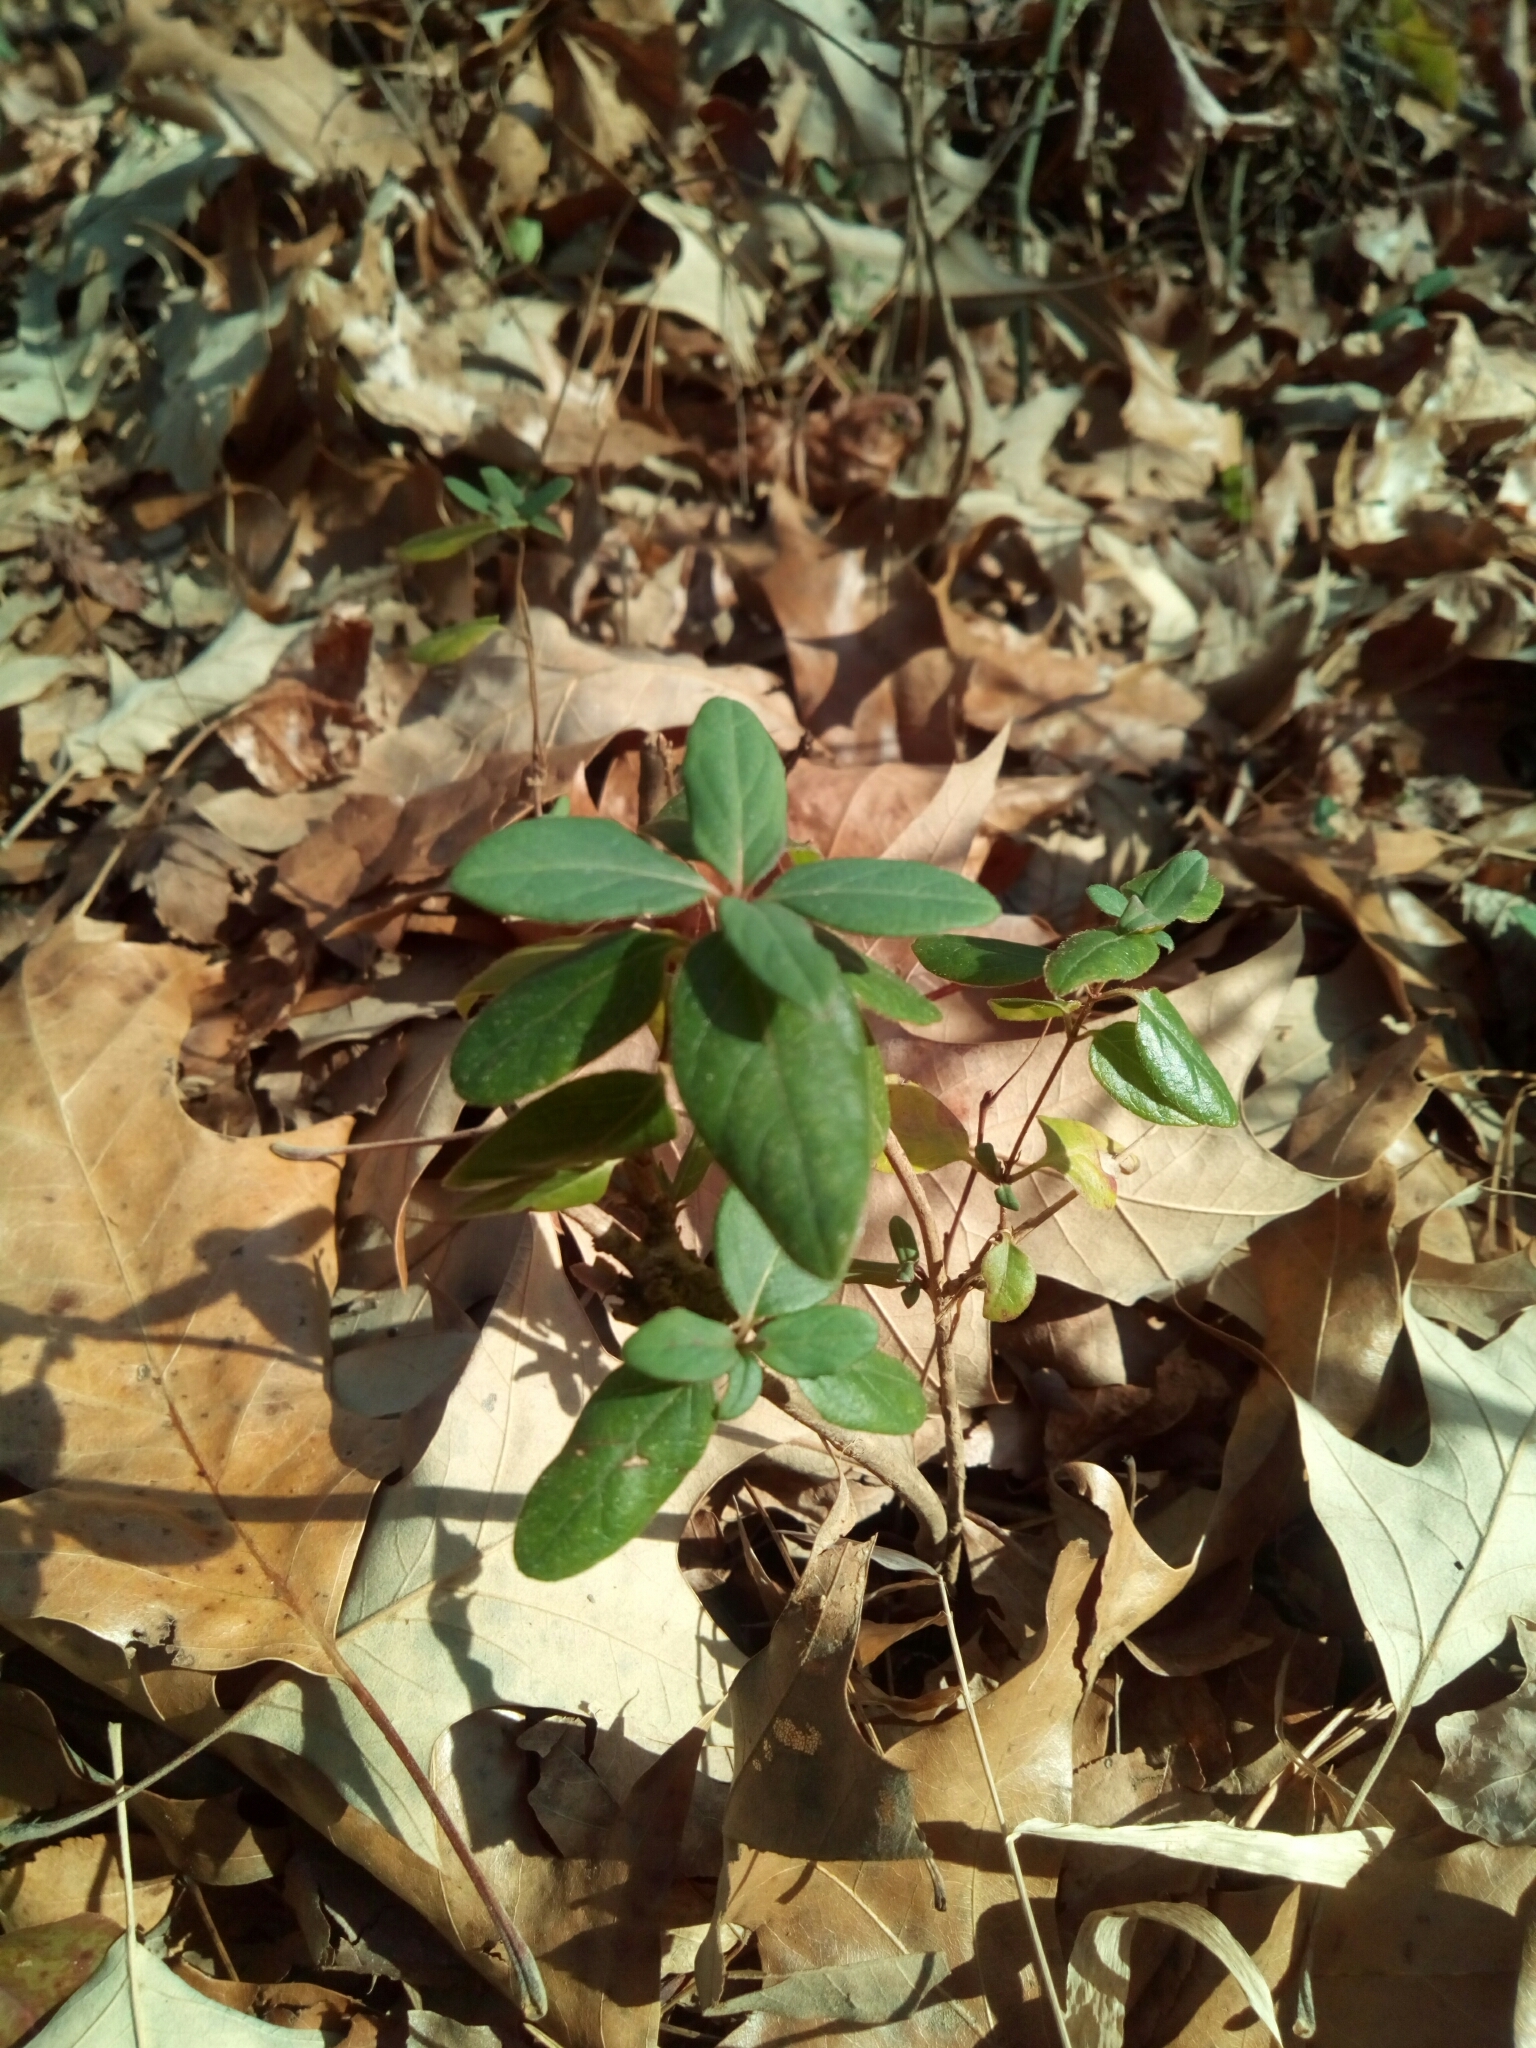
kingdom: Plantae
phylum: Tracheophyta
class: Magnoliopsida
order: Dipsacales
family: Caprifoliaceae
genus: Lonicera
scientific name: Lonicera japonica
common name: Japanese honeysuckle
